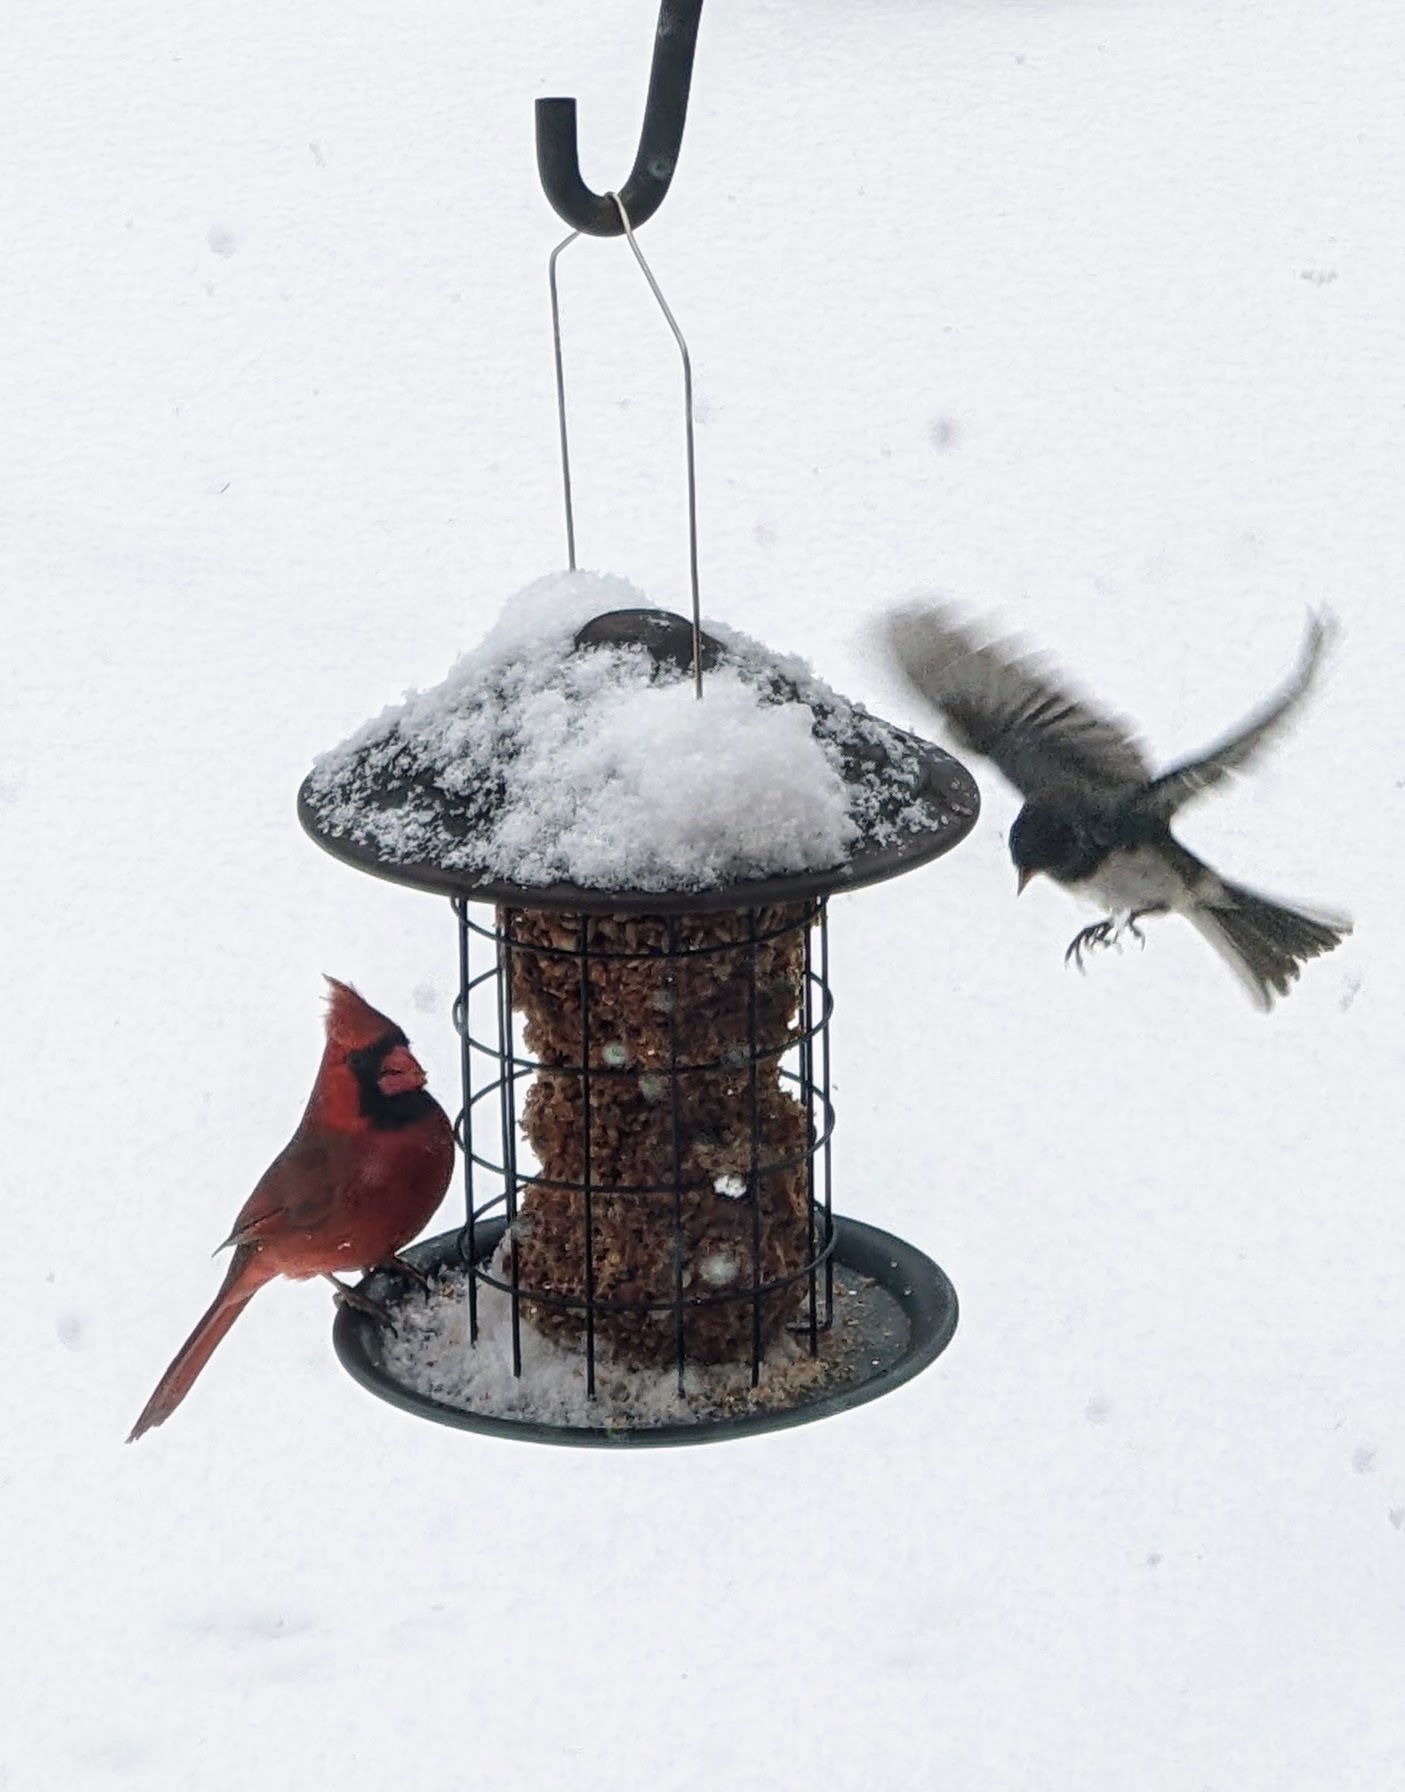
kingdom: Animalia
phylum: Chordata
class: Aves
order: Passeriformes
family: Passerellidae
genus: Junco
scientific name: Junco hyemalis
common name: Dark-eyed junco
